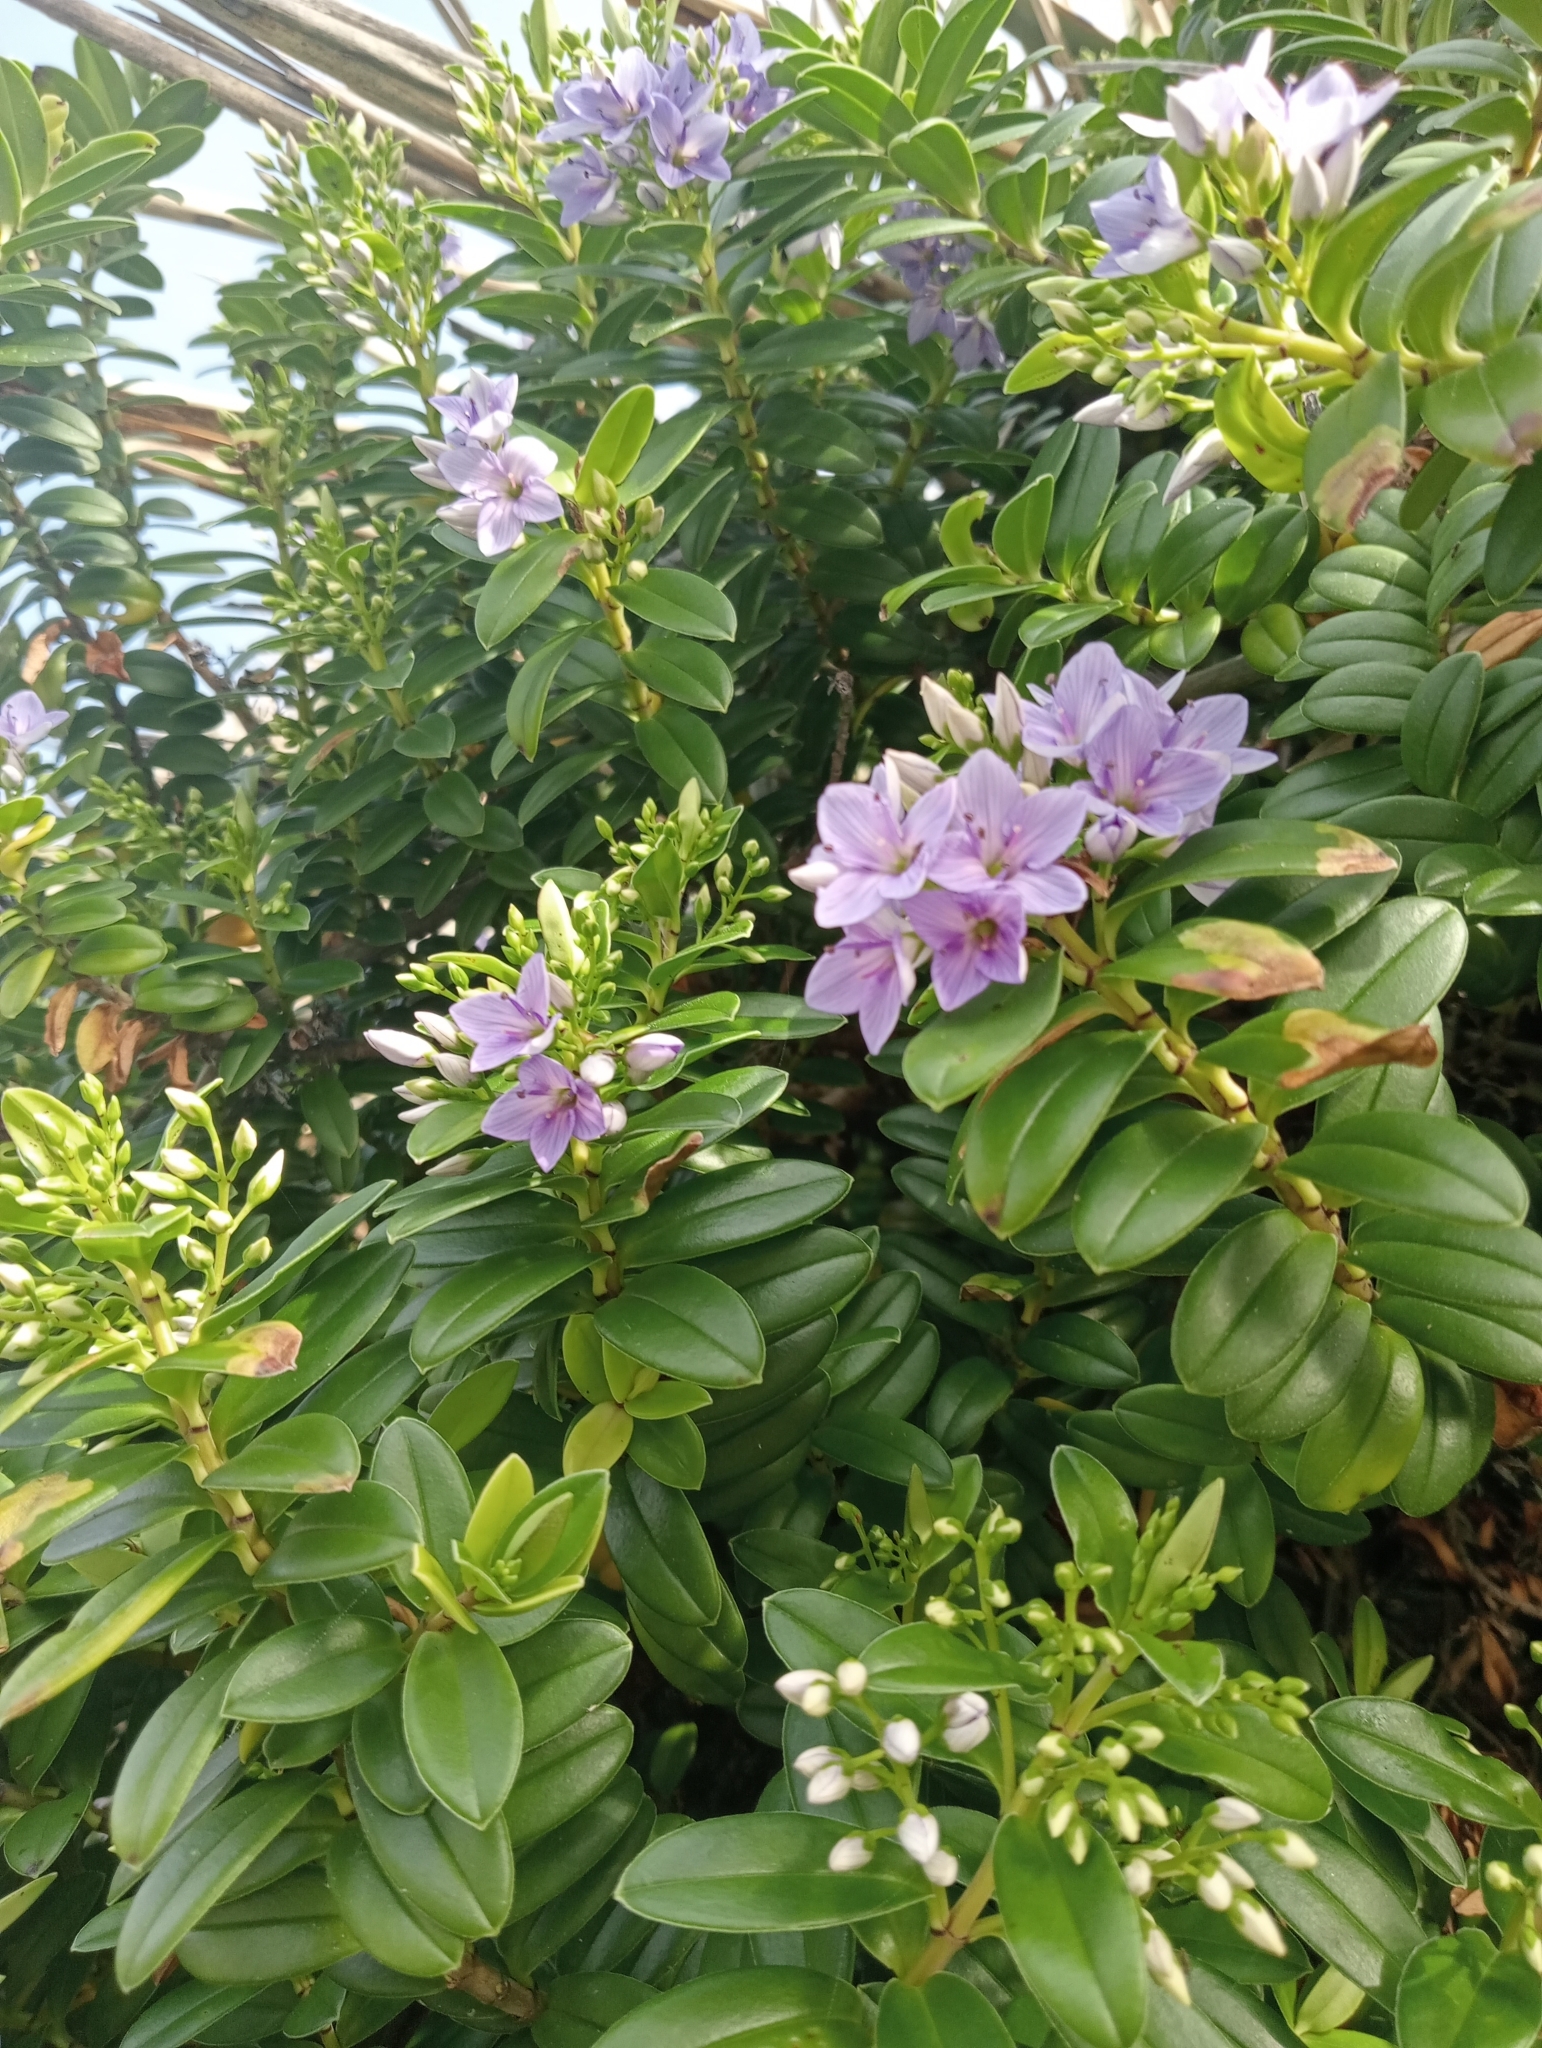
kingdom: Plantae
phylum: Tracheophyta
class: Magnoliopsida
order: Lamiales
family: Plantaginaceae
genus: Veronica
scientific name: Veronica elliptica
